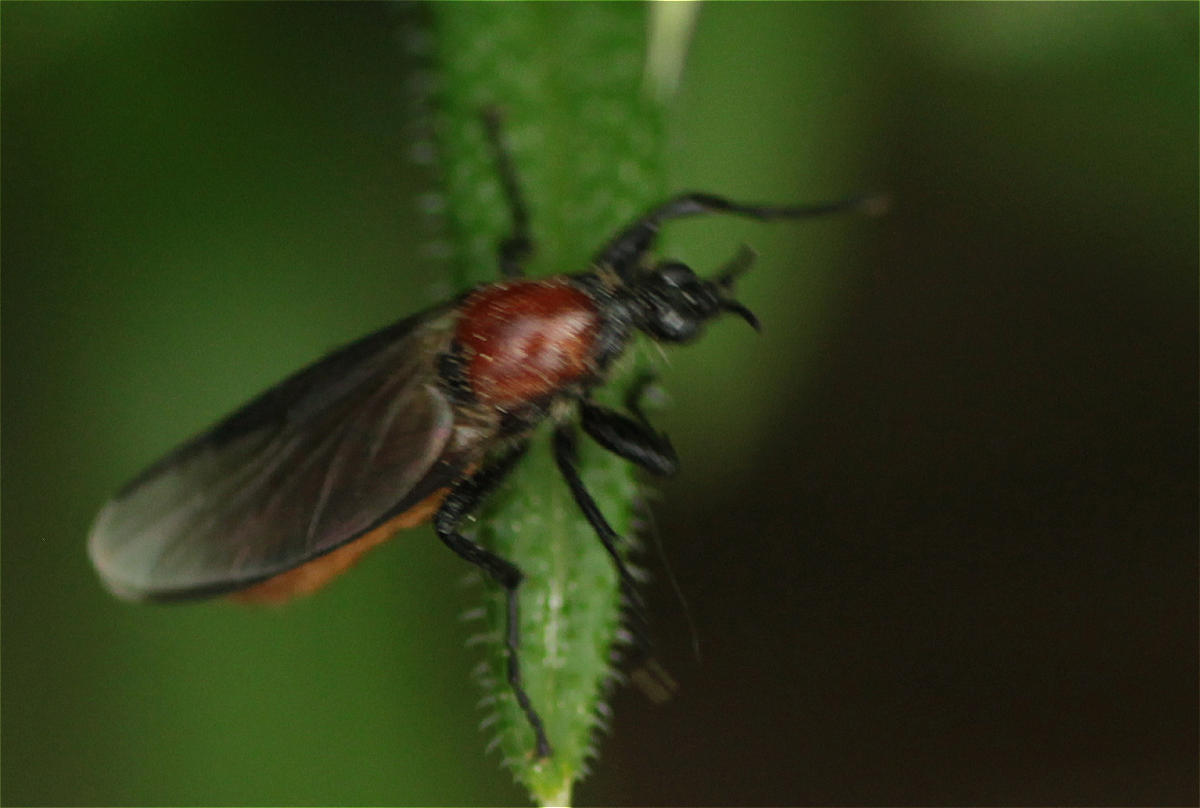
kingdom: Animalia
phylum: Arthropoda
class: Insecta
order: Diptera
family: Bibionidae
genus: Bibio
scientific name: Bibio hortulanus
